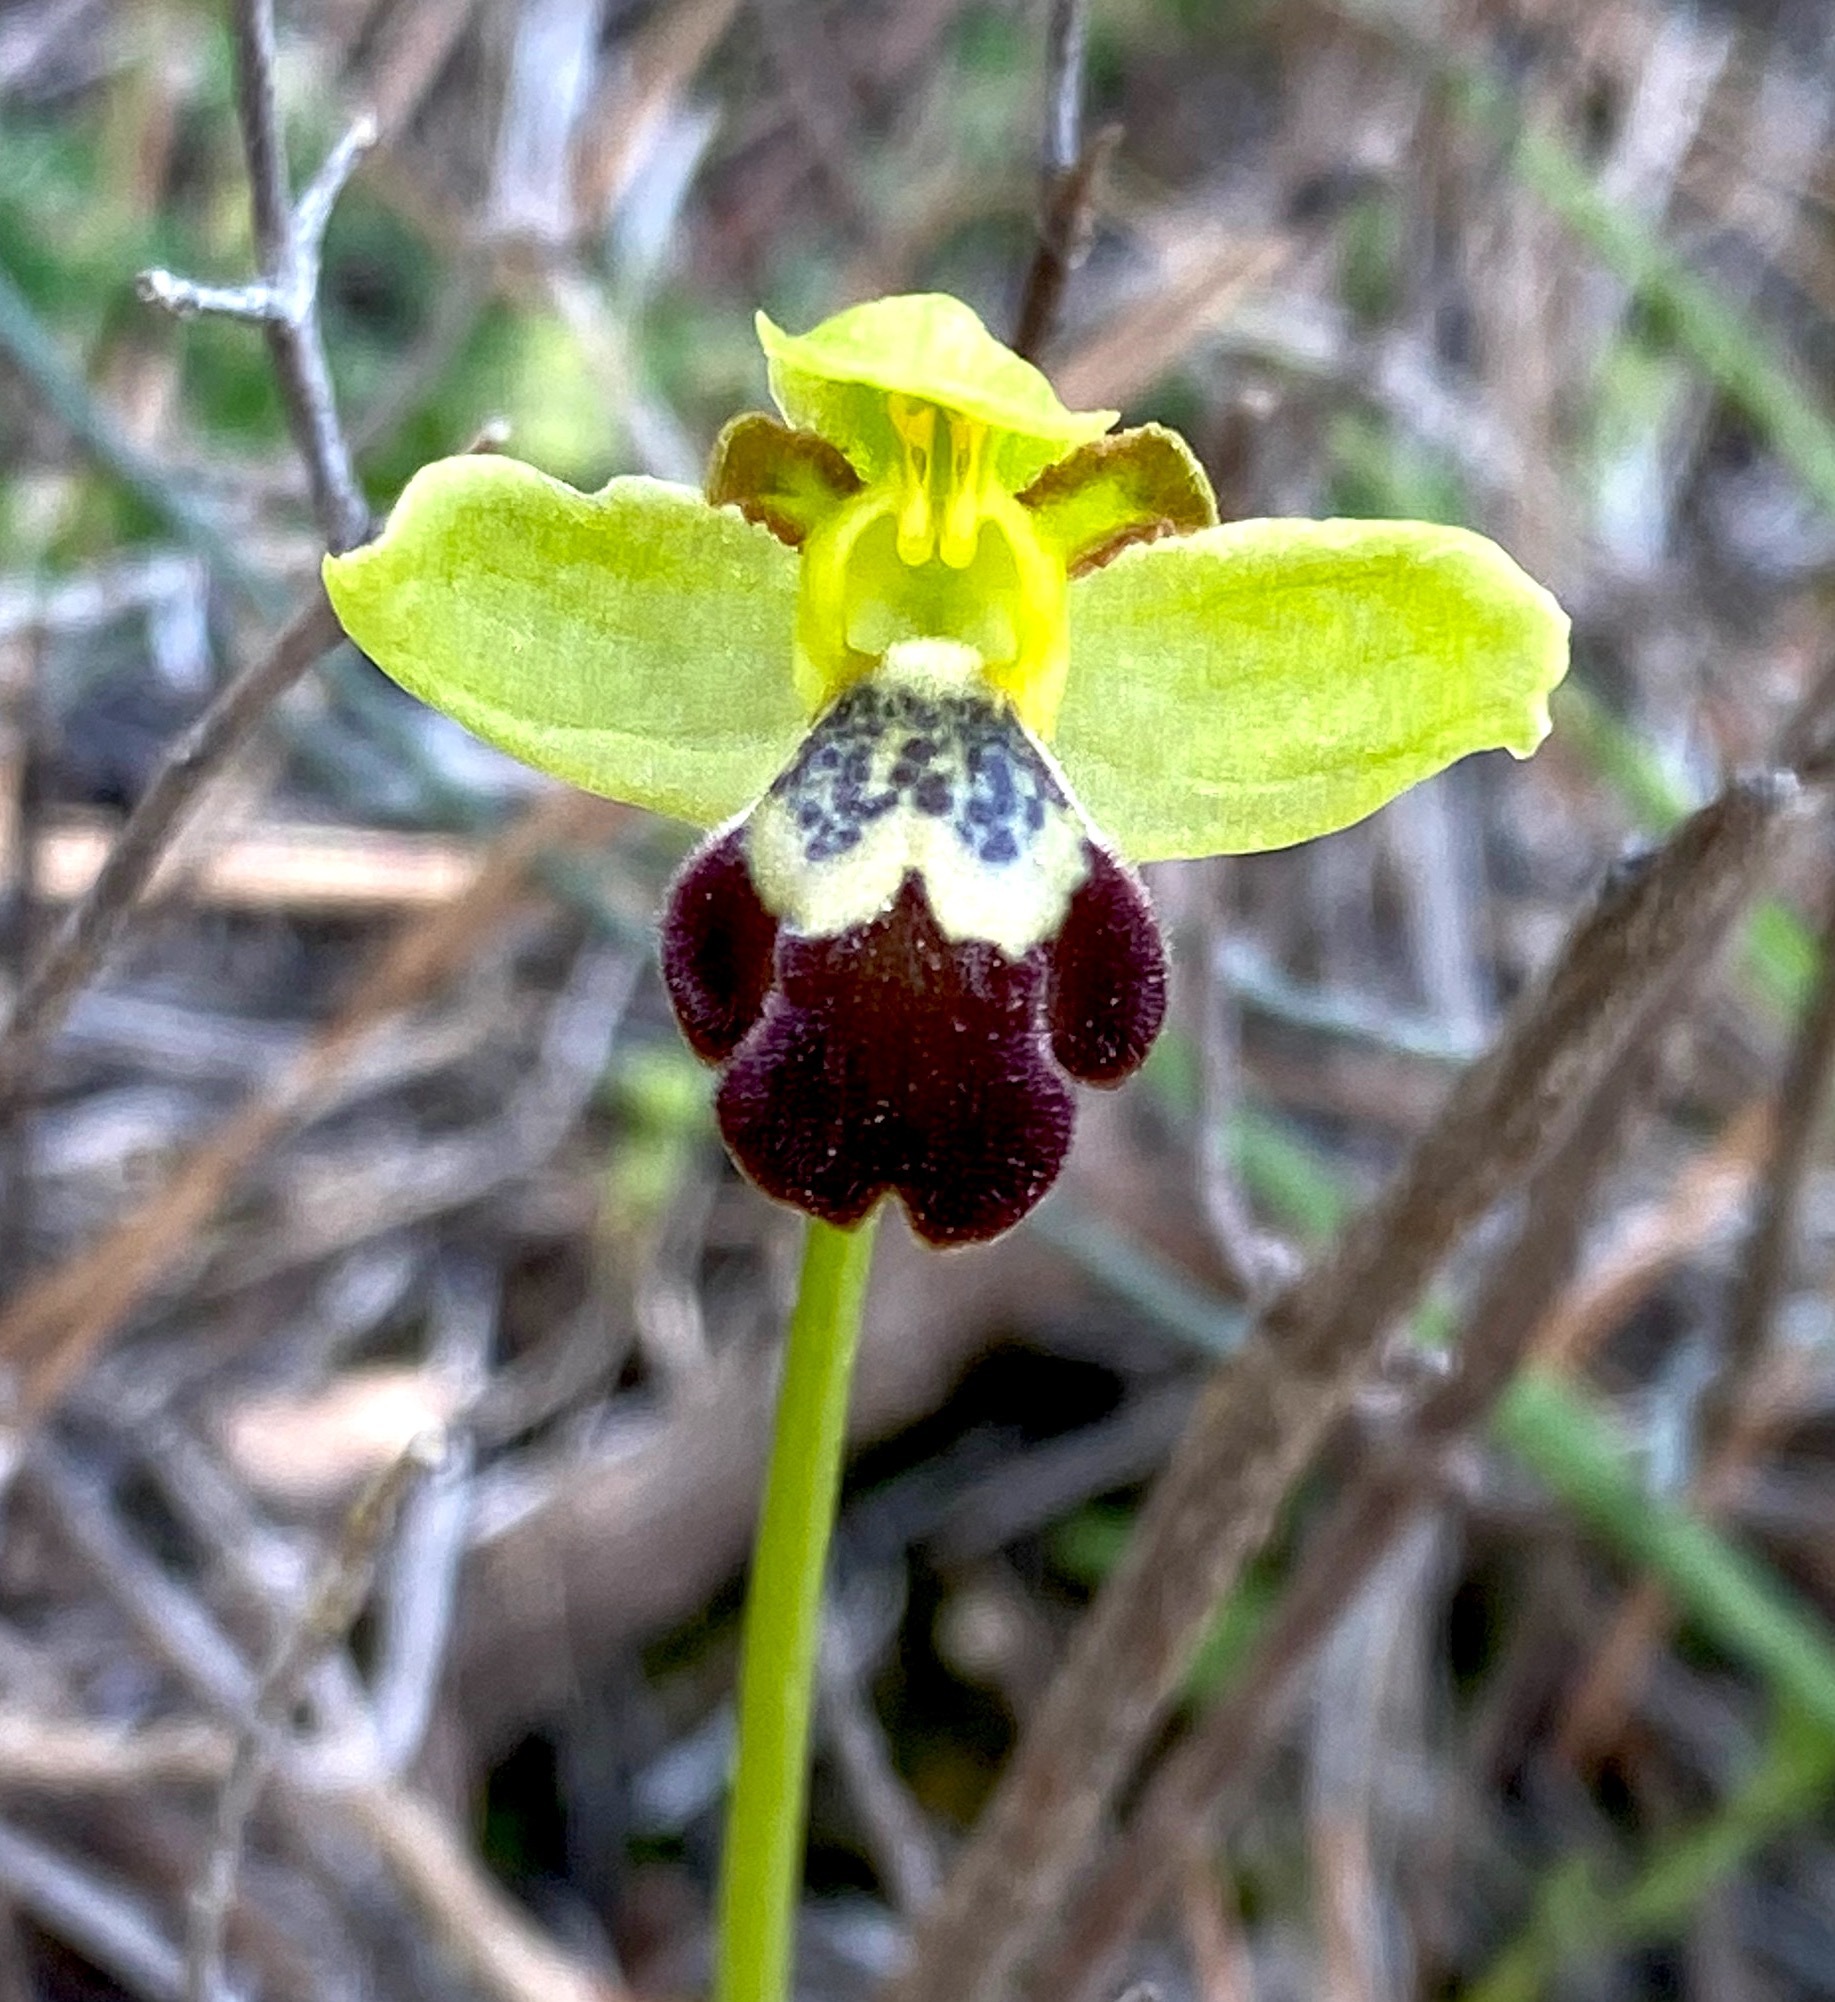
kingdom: Plantae
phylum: Tracheophyta
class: Liliopsida
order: Asparagales
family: Orchidaceae
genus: Ophrys
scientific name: Ophrys omegaifera
